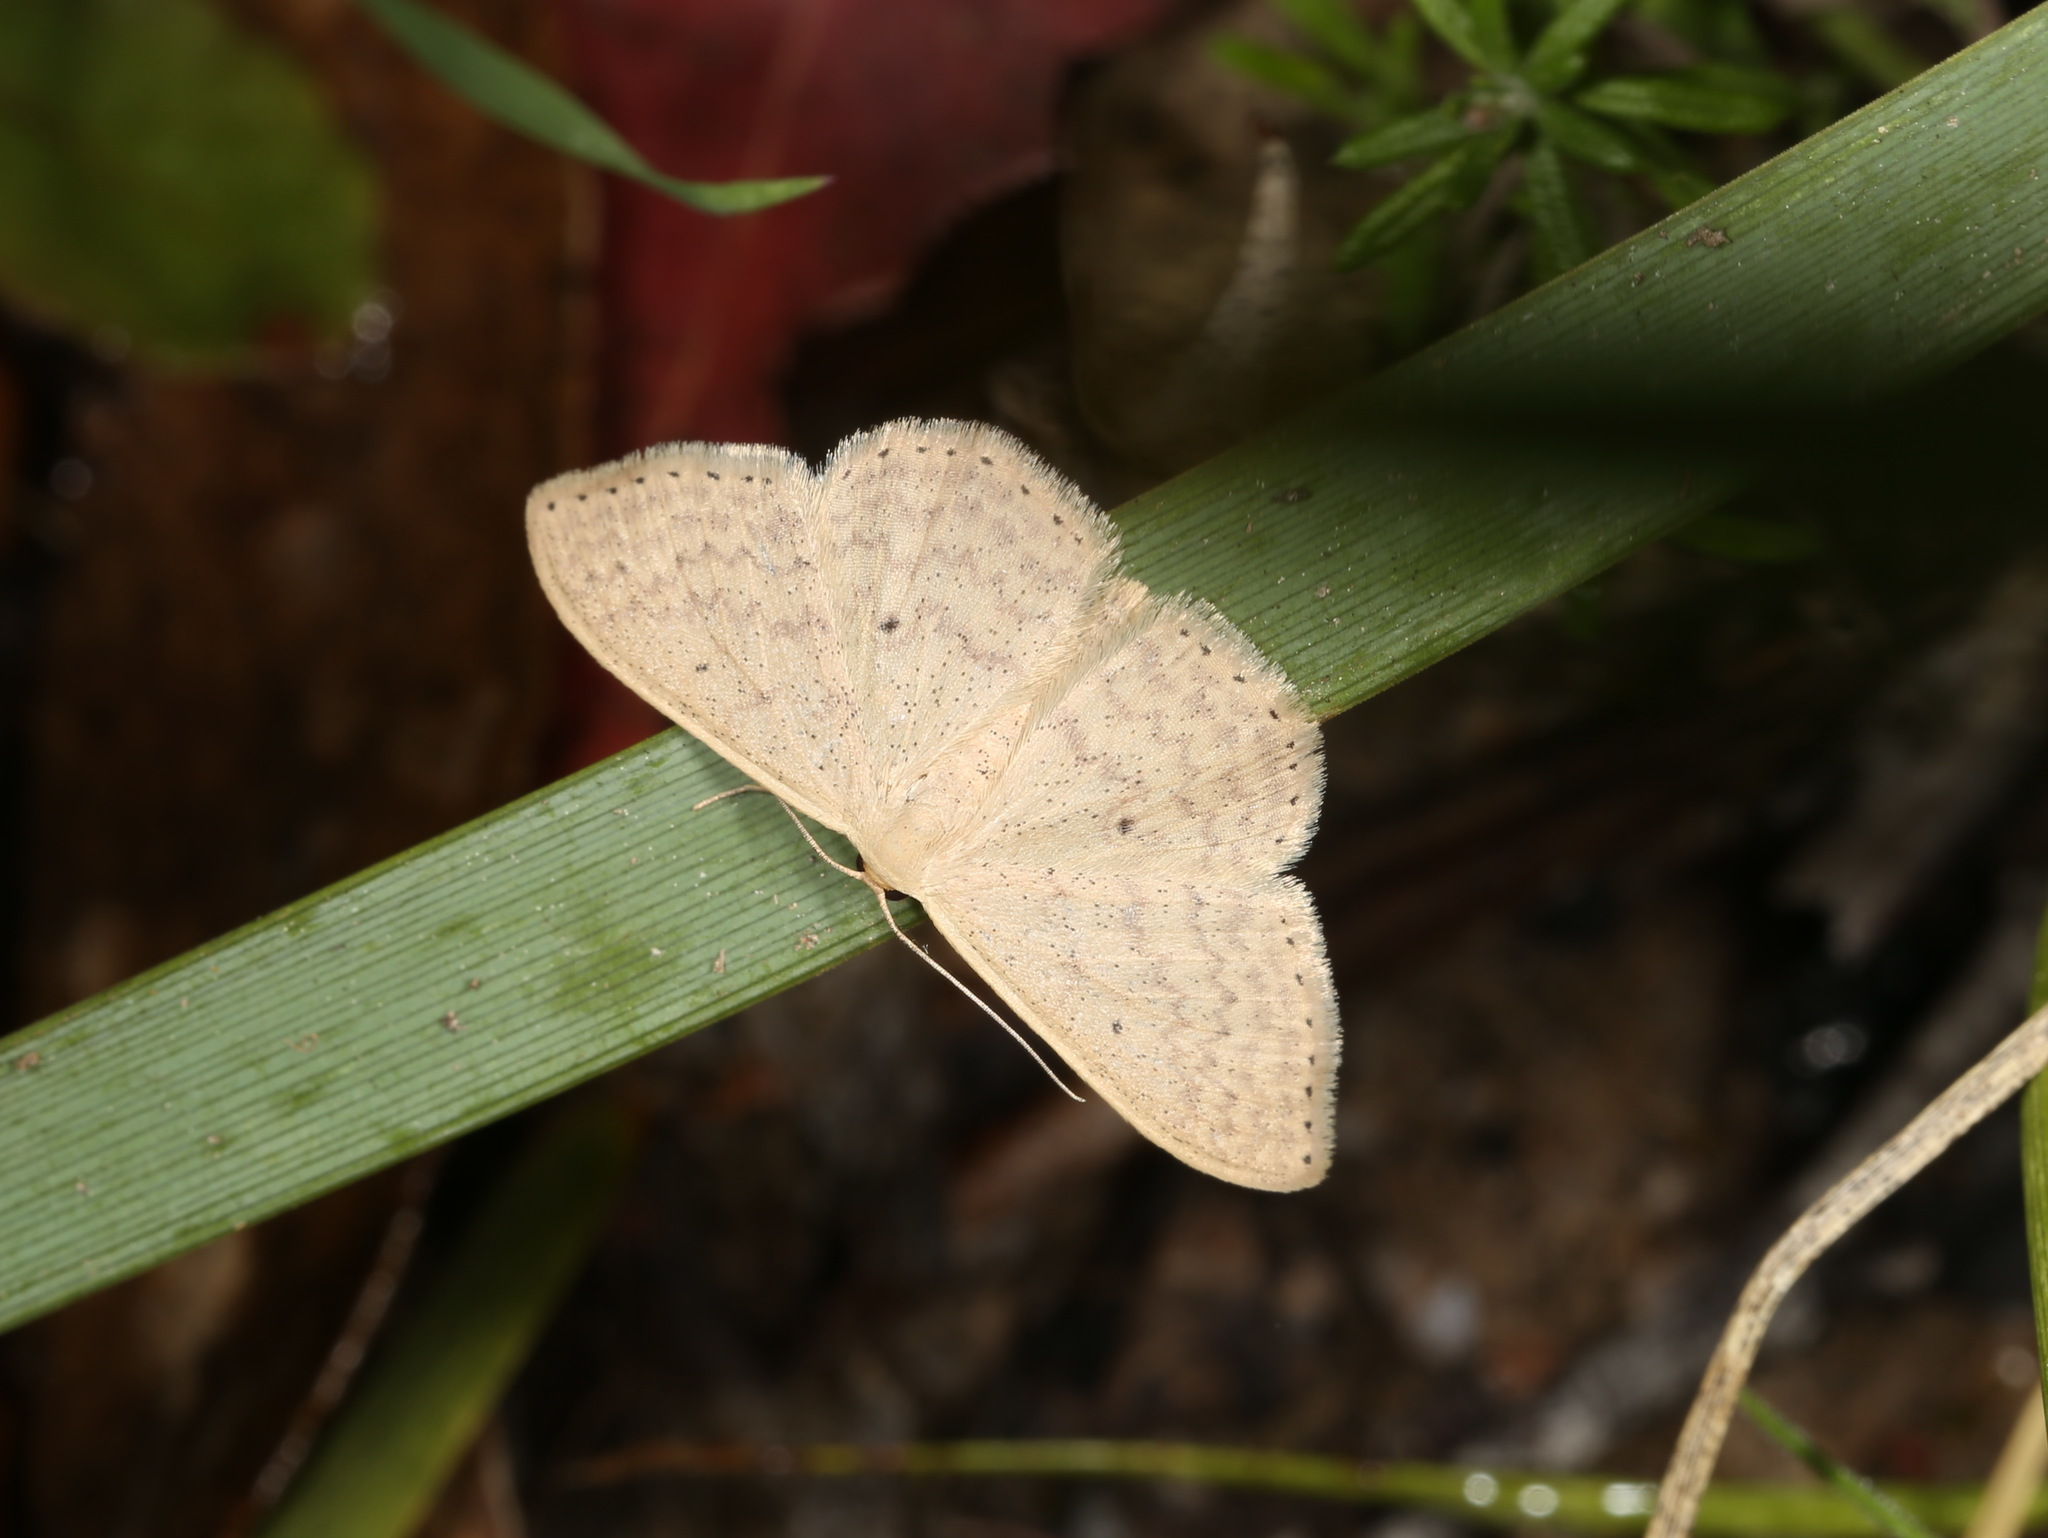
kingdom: Animalia
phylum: Arthropoda
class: Insecta
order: Lepidoptera
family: Geometridae
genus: Scopula
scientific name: Scopula optivata
